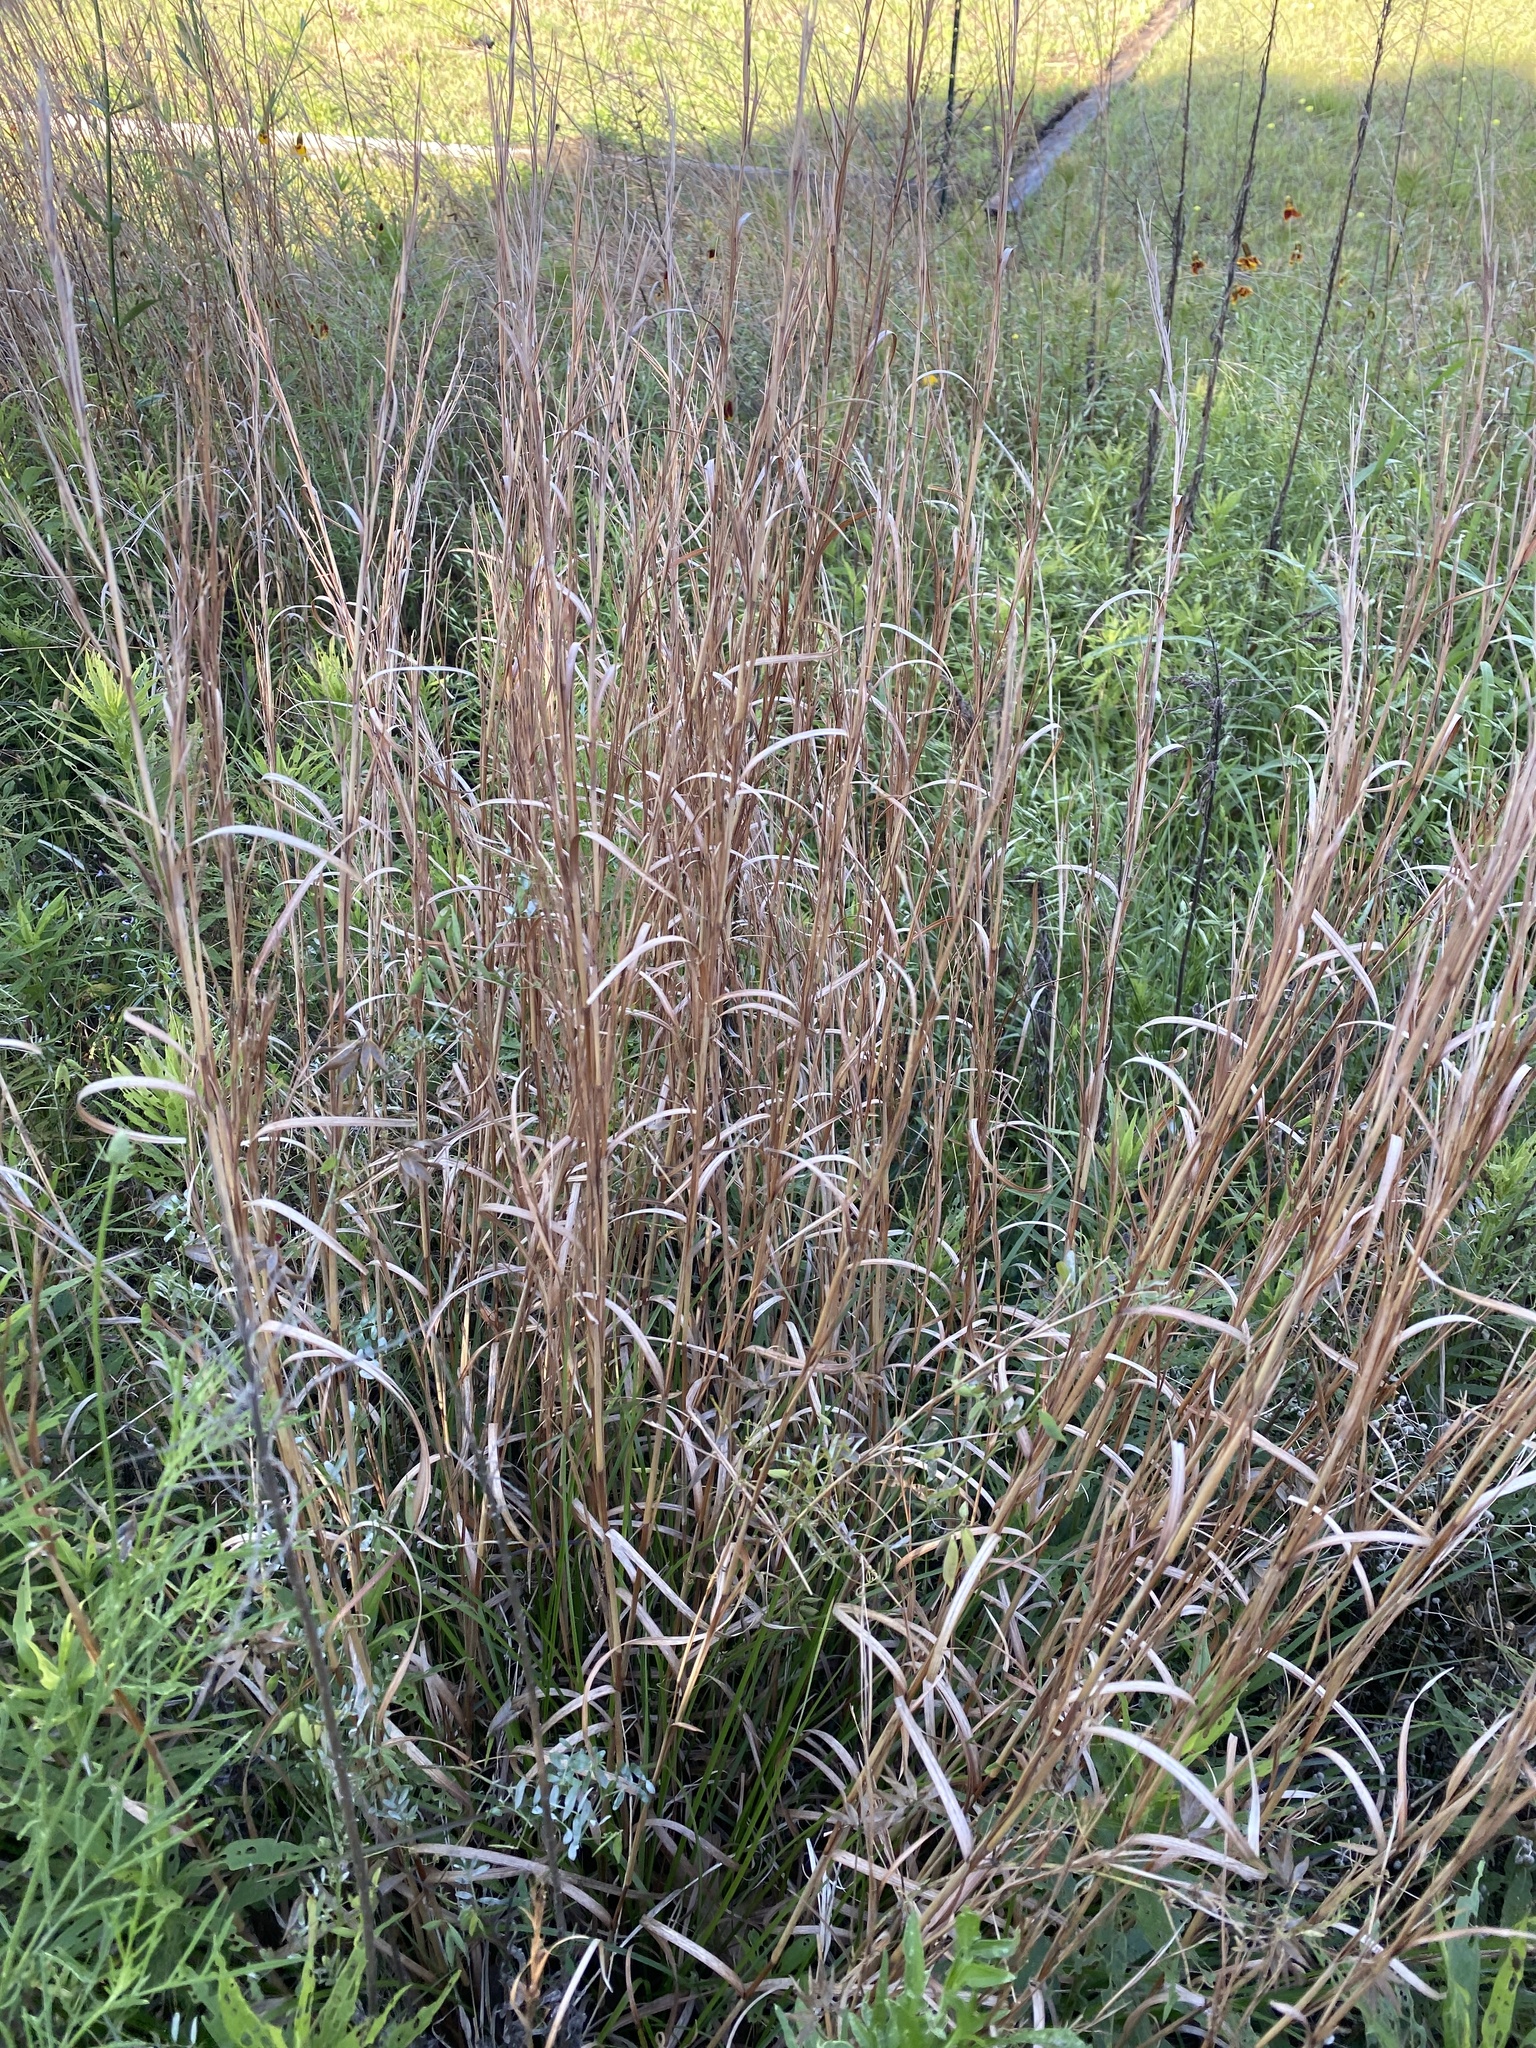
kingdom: Plantae
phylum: Tracheophyta
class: Liliopsida
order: Poales
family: Poaceae
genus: Schizachyrium
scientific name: Schizachyrium scoparium
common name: Little bluestem
